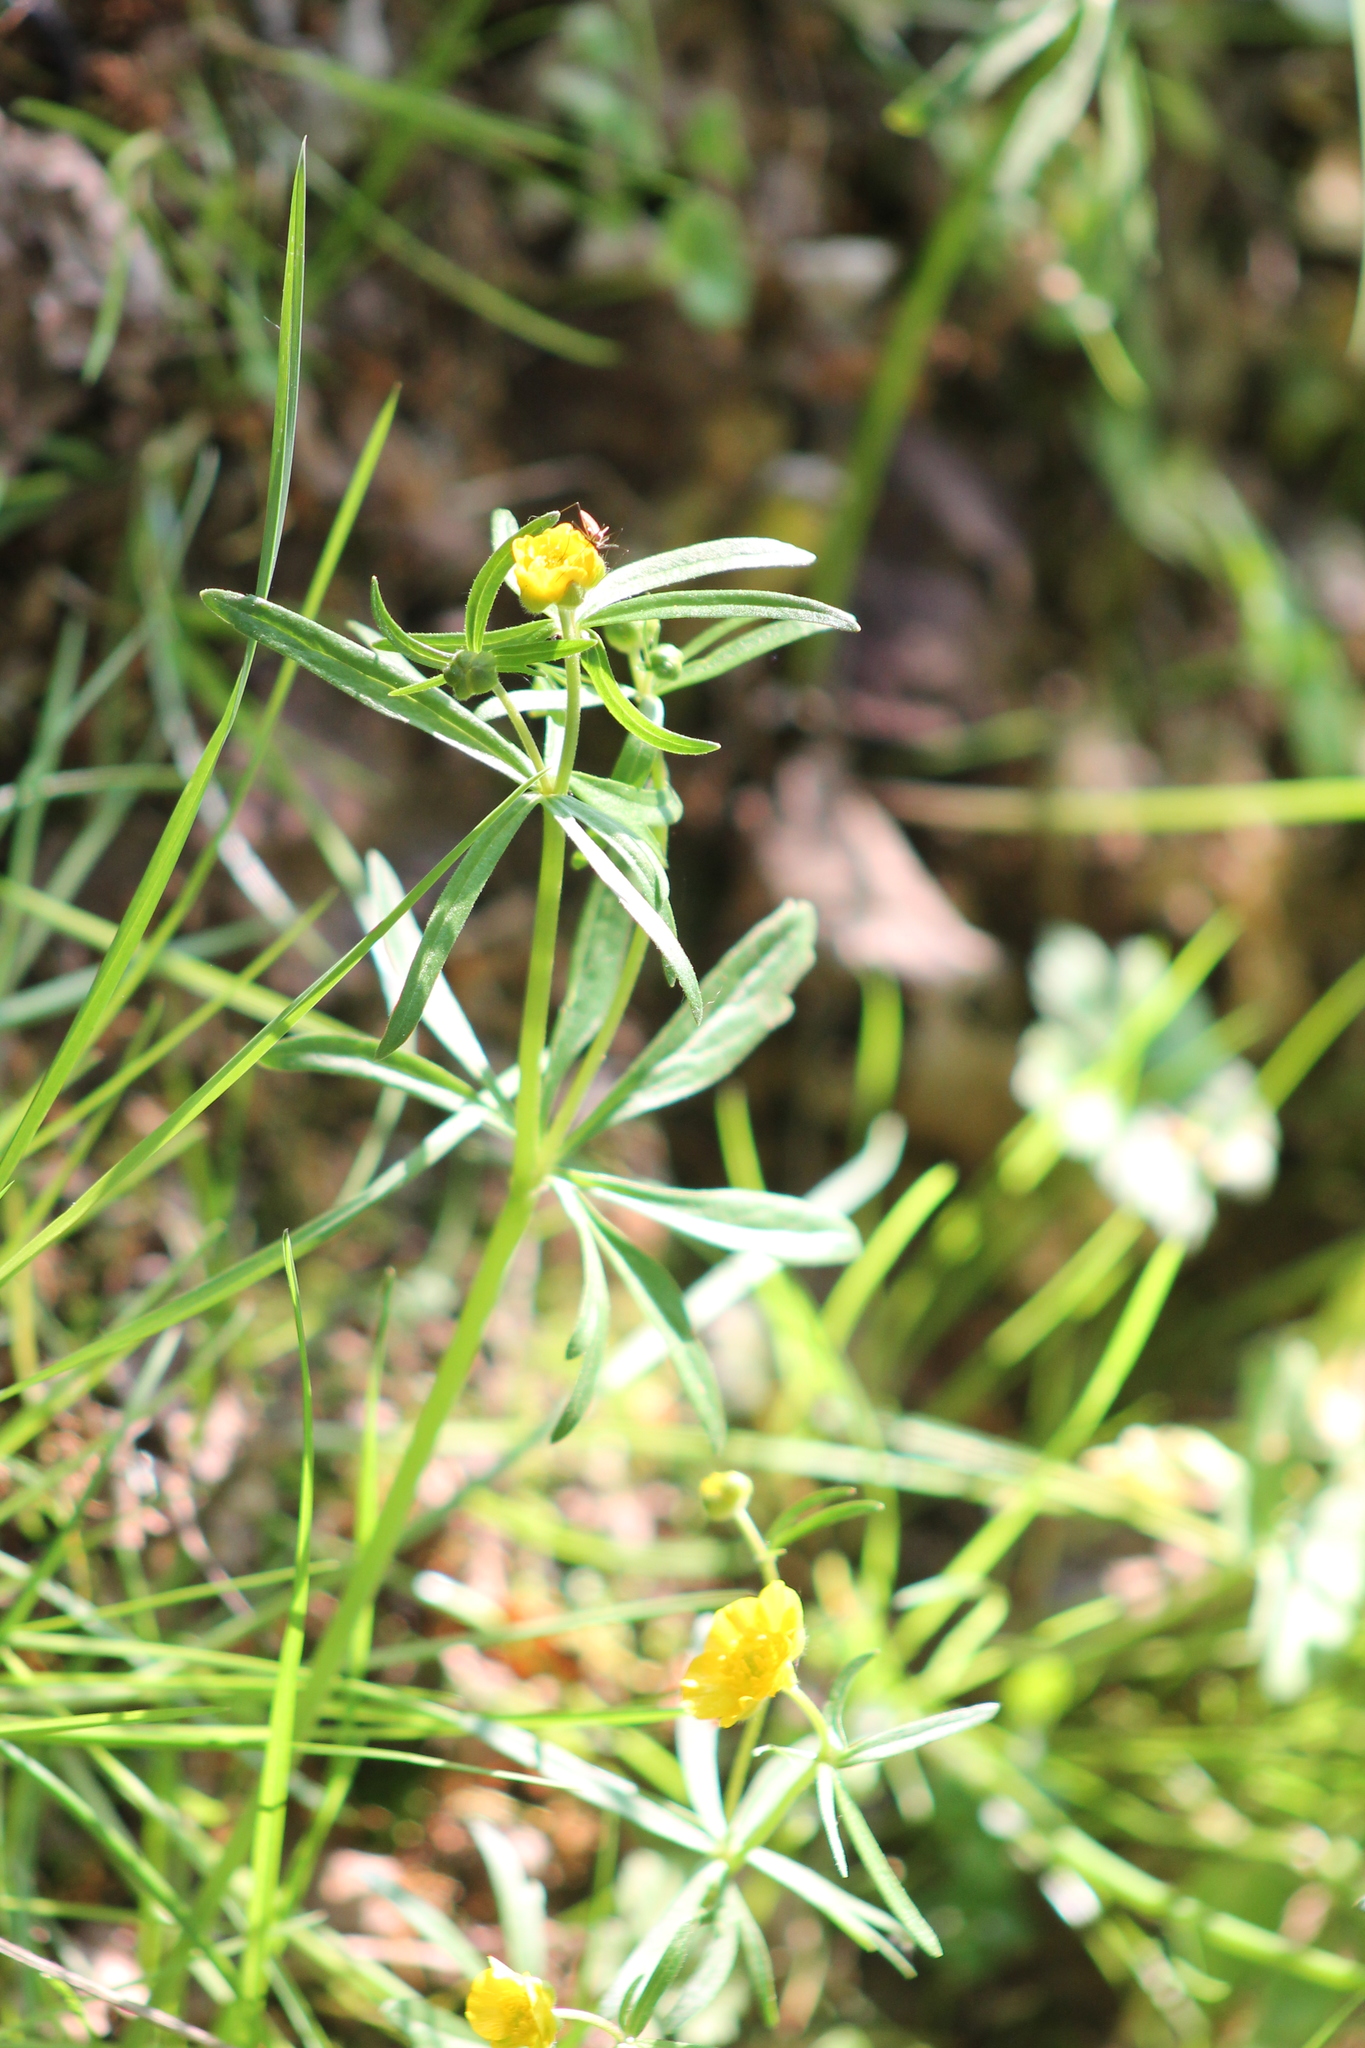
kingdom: Plantae
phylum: Tracheophyta
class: Magnoliopsida
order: Ranunculales
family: Ranunculaceae
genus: Ranunculus
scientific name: Ranunculus auricomus
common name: Goldilocks buttercup
